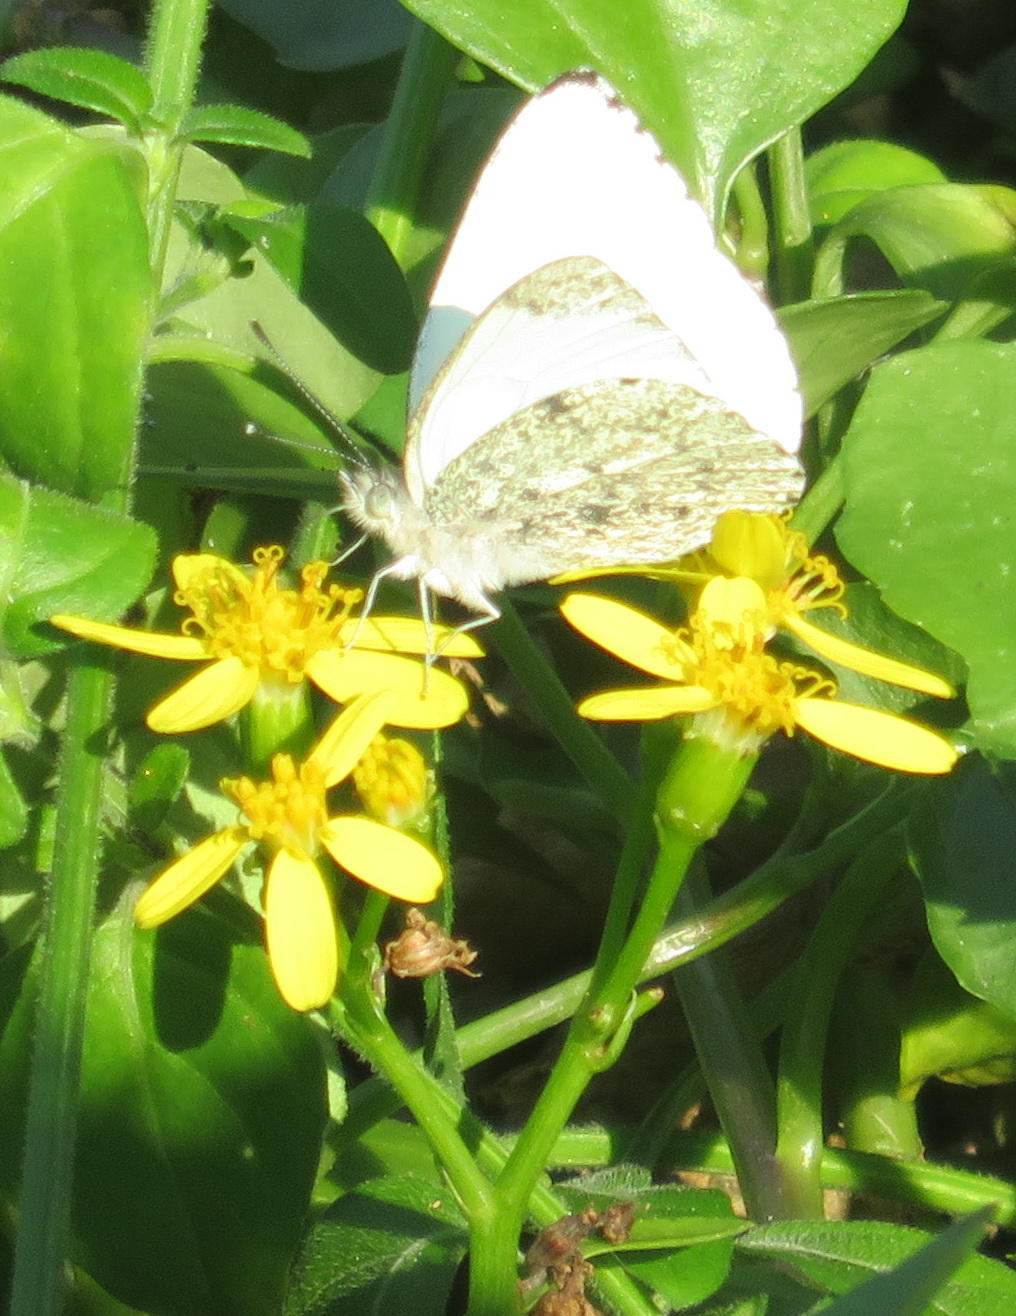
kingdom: Animalia
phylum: Arthropoda
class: Insecta
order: Lepidoptera
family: Pieridae
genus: Dixeia
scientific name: Dixeia charina
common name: African small white
